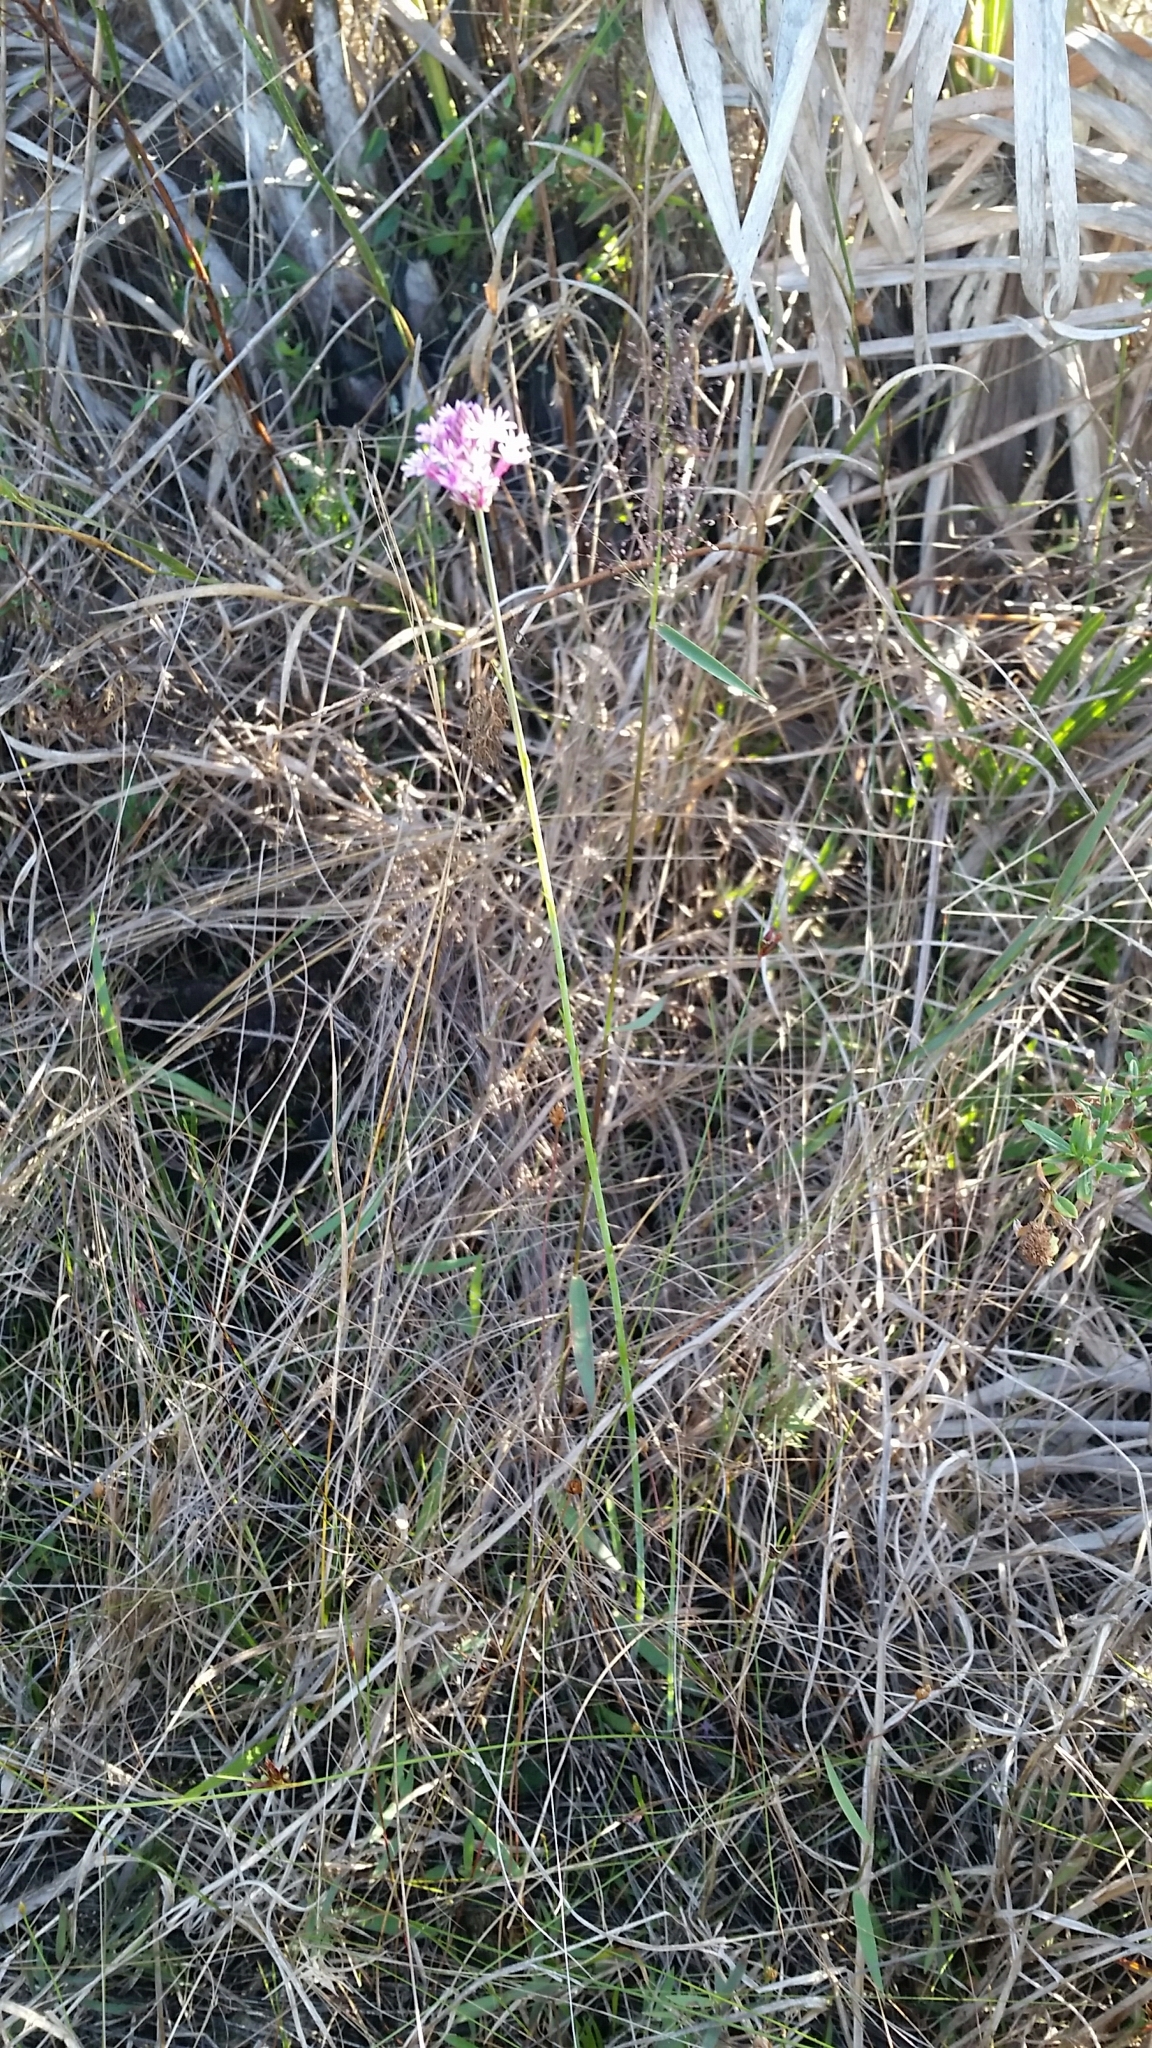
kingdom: Plantae
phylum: Tracheophyta
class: Magnoliopsida
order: Fabales
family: Polygalaceae
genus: Polygala
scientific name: Polygala incarnata
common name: Pink milkwort
